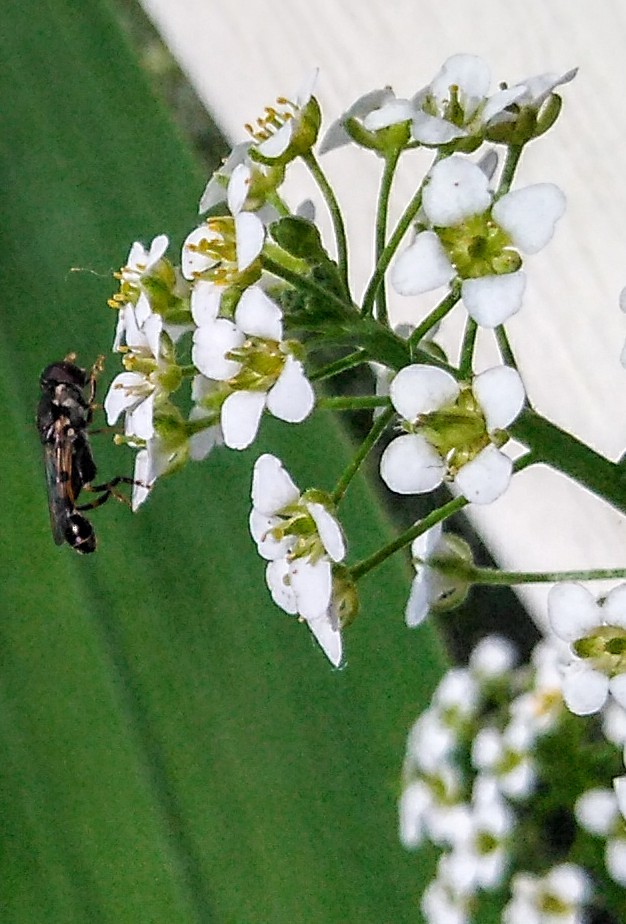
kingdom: Animalia
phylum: Arthropoda
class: Insecta
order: Diptera
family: Syrphidae
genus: Syritta
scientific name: Syritta pipiens
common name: Hover fly
